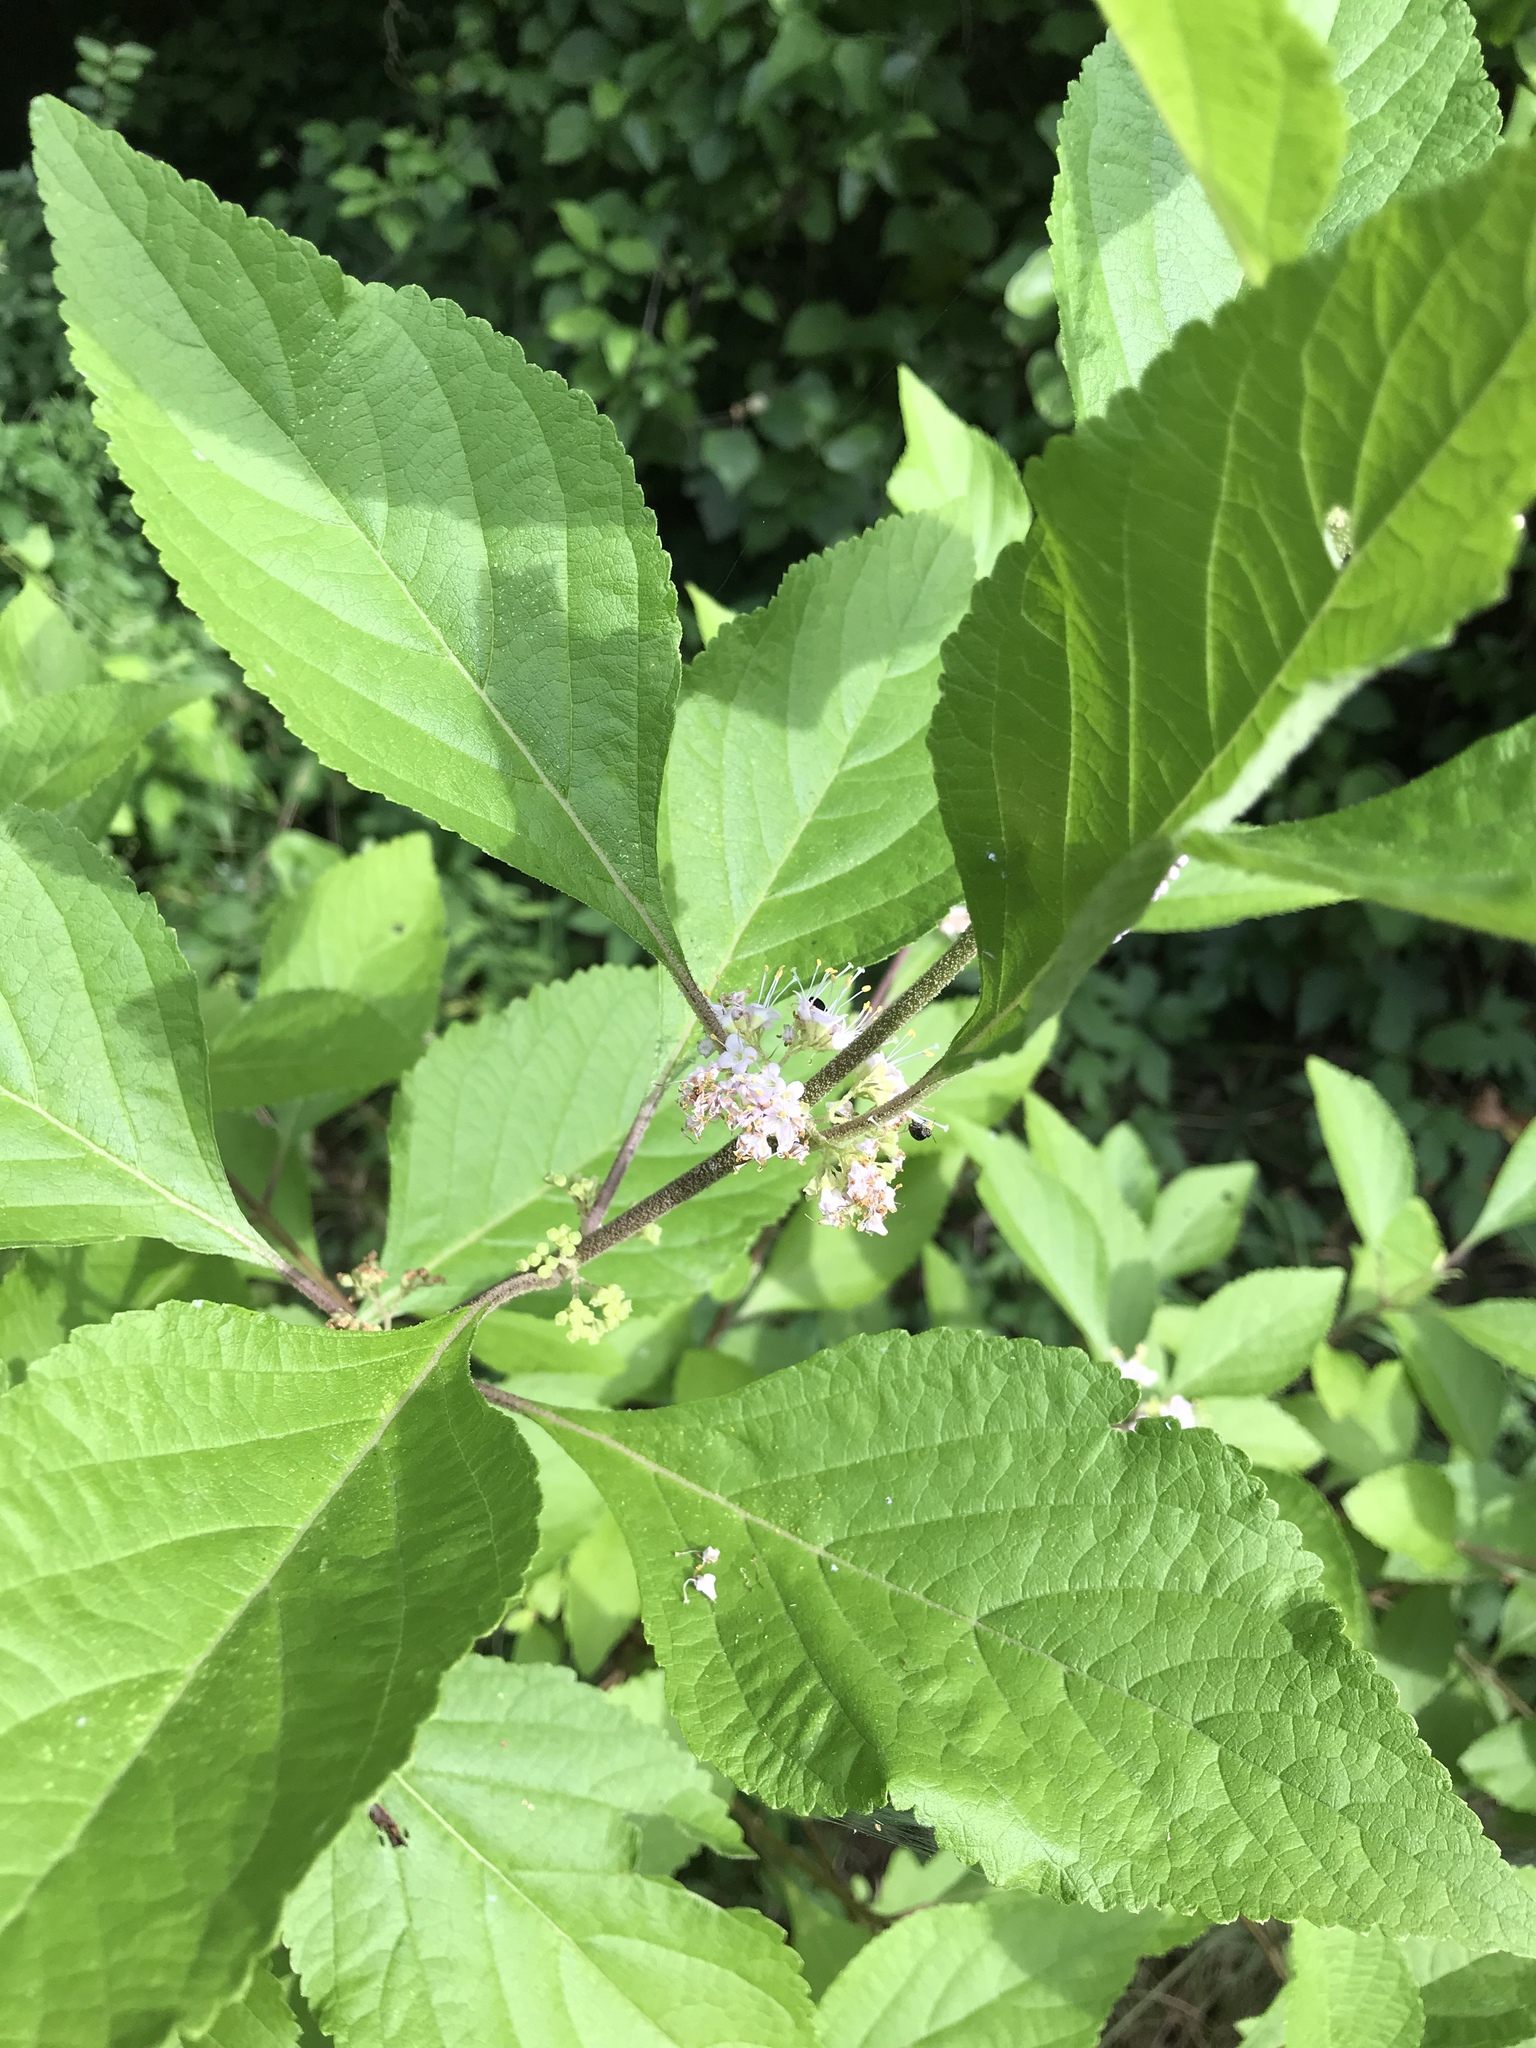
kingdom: Plantae
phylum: Tracheophyta
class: Magnoliopsida
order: Lamiales
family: Lamiaceae
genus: Callicarpa
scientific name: Callicarpa americana
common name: American beautyberry
